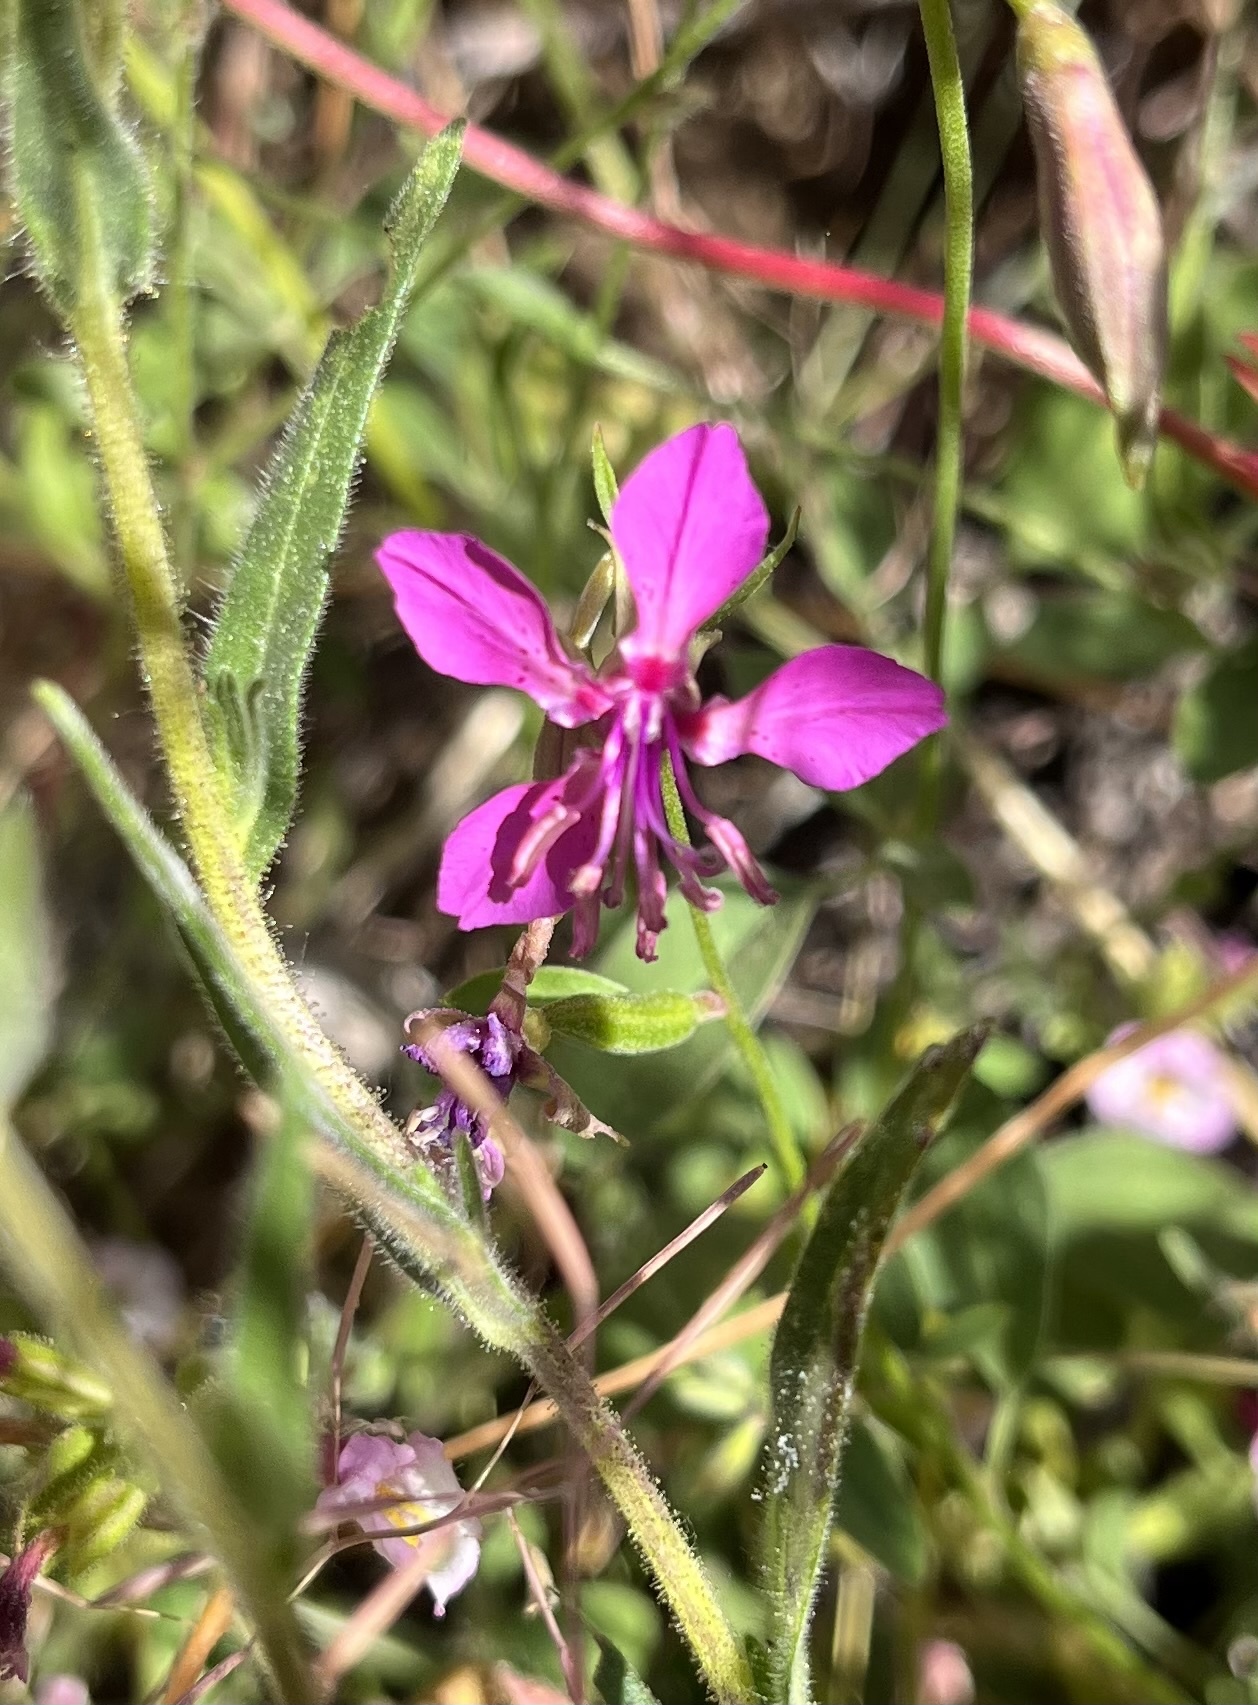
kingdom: Plantae
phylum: Tracheophyta
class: Magnoliopsida
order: Myrtales
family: Onagraceae
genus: Clarkia
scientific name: Clarkia rhomboidea
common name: Broadleaf clarkia
